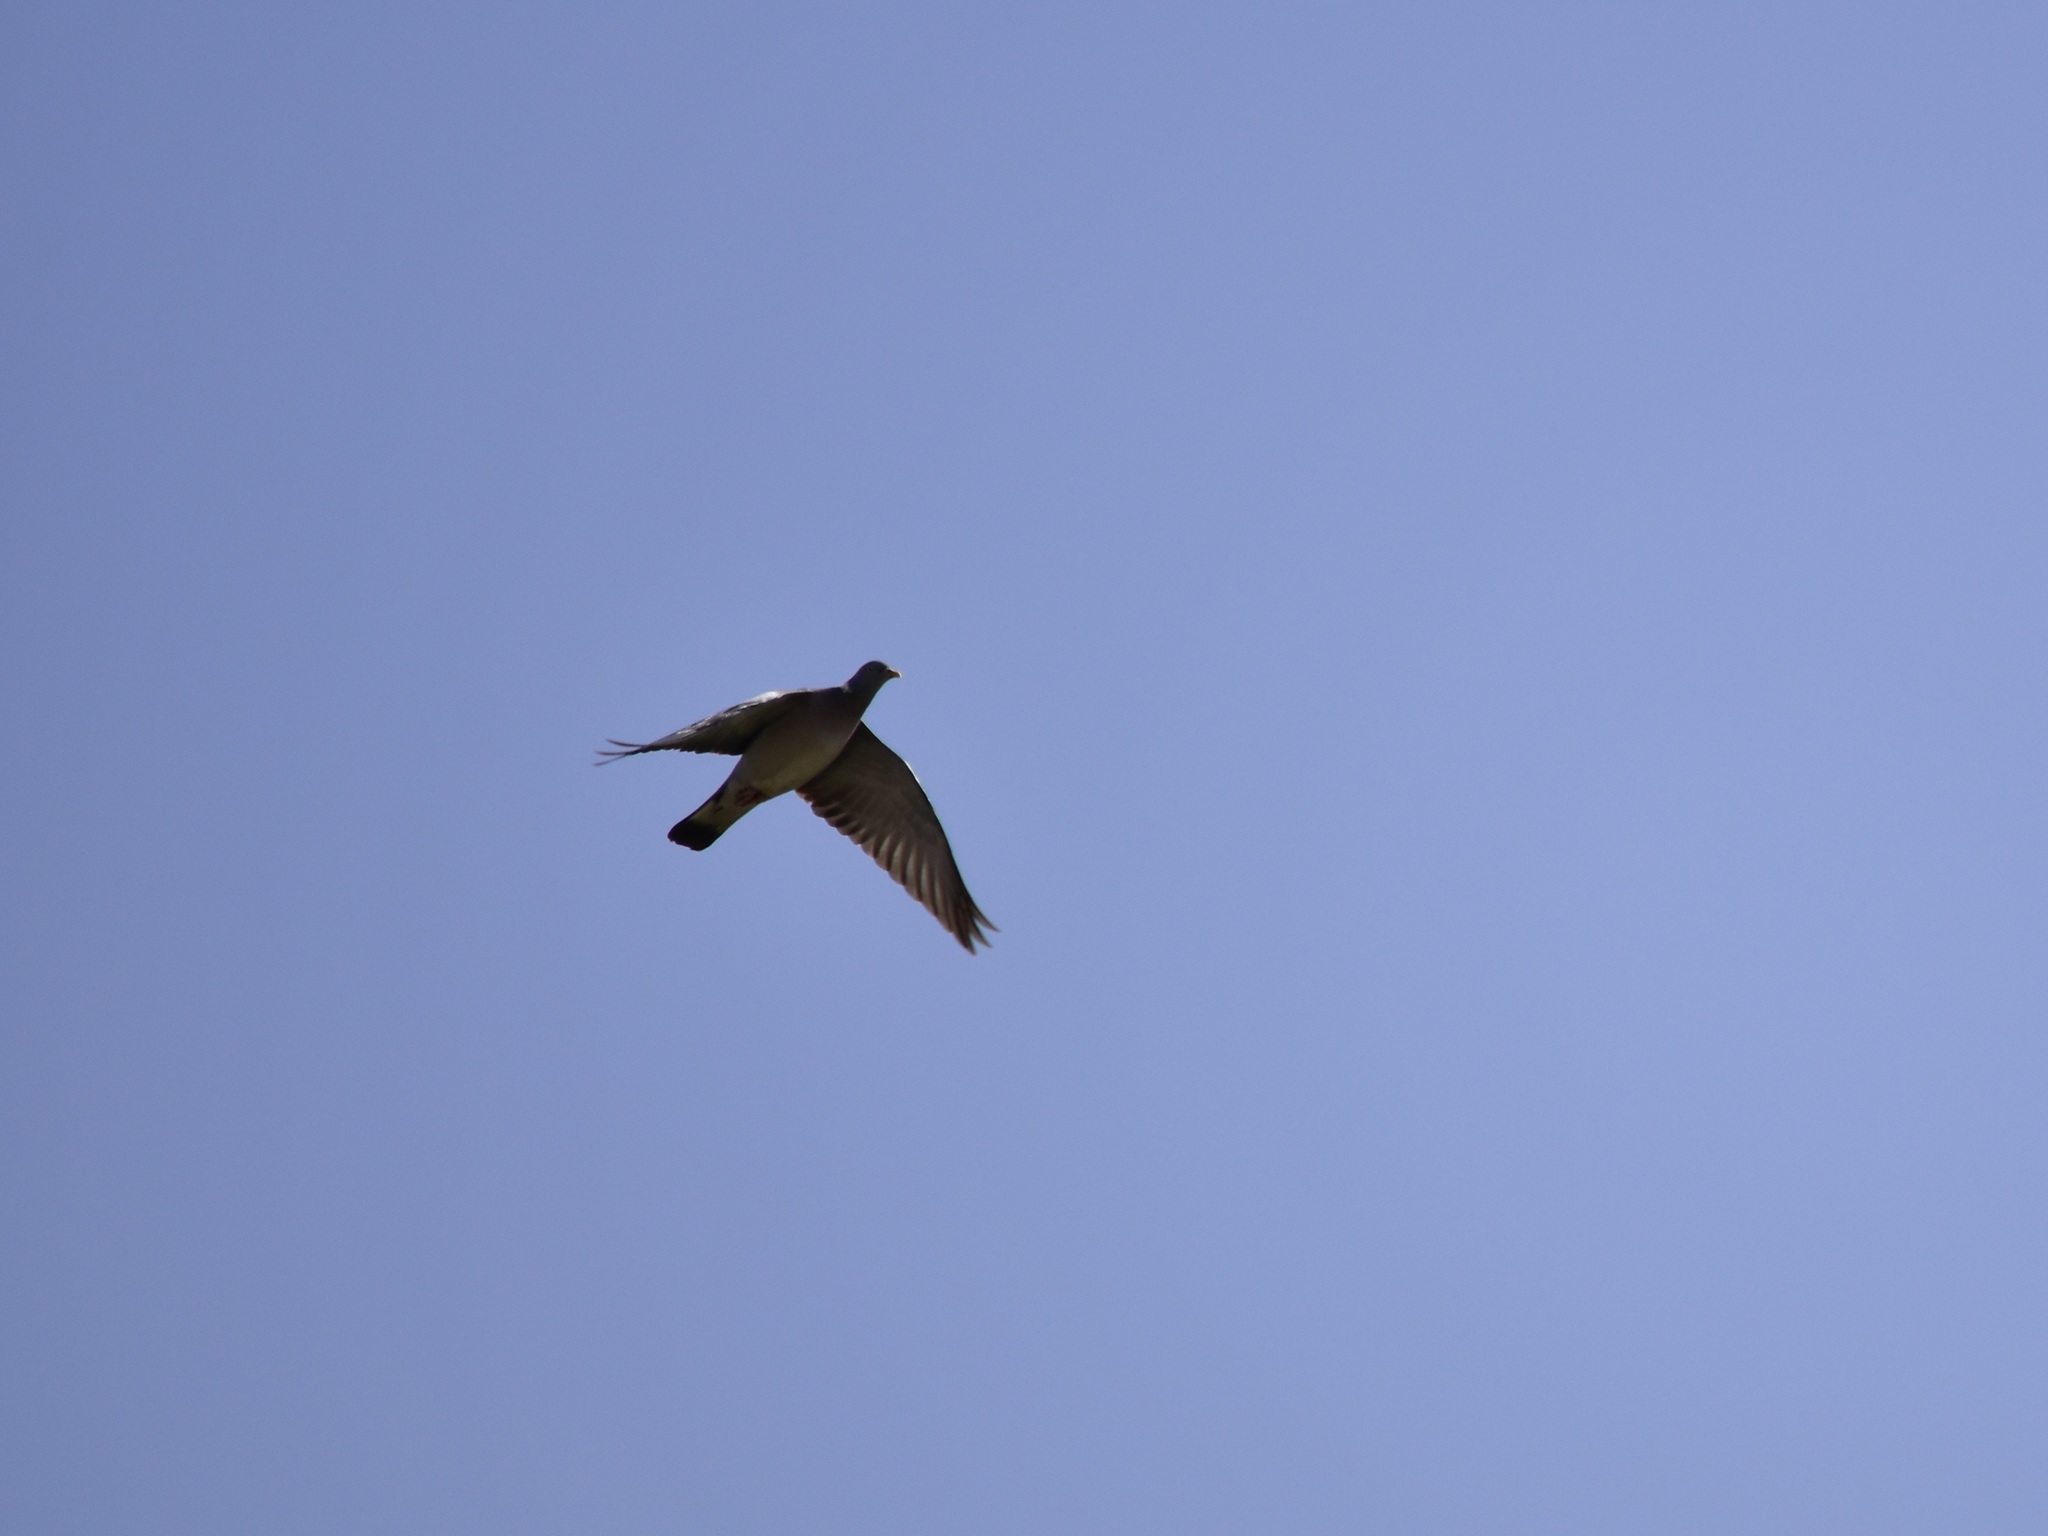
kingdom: Animalia
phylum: Chordata
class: Aves
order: Columbiformes
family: Columbidae
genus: Columba
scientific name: Columba palumbus
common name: Common wood pigeon
